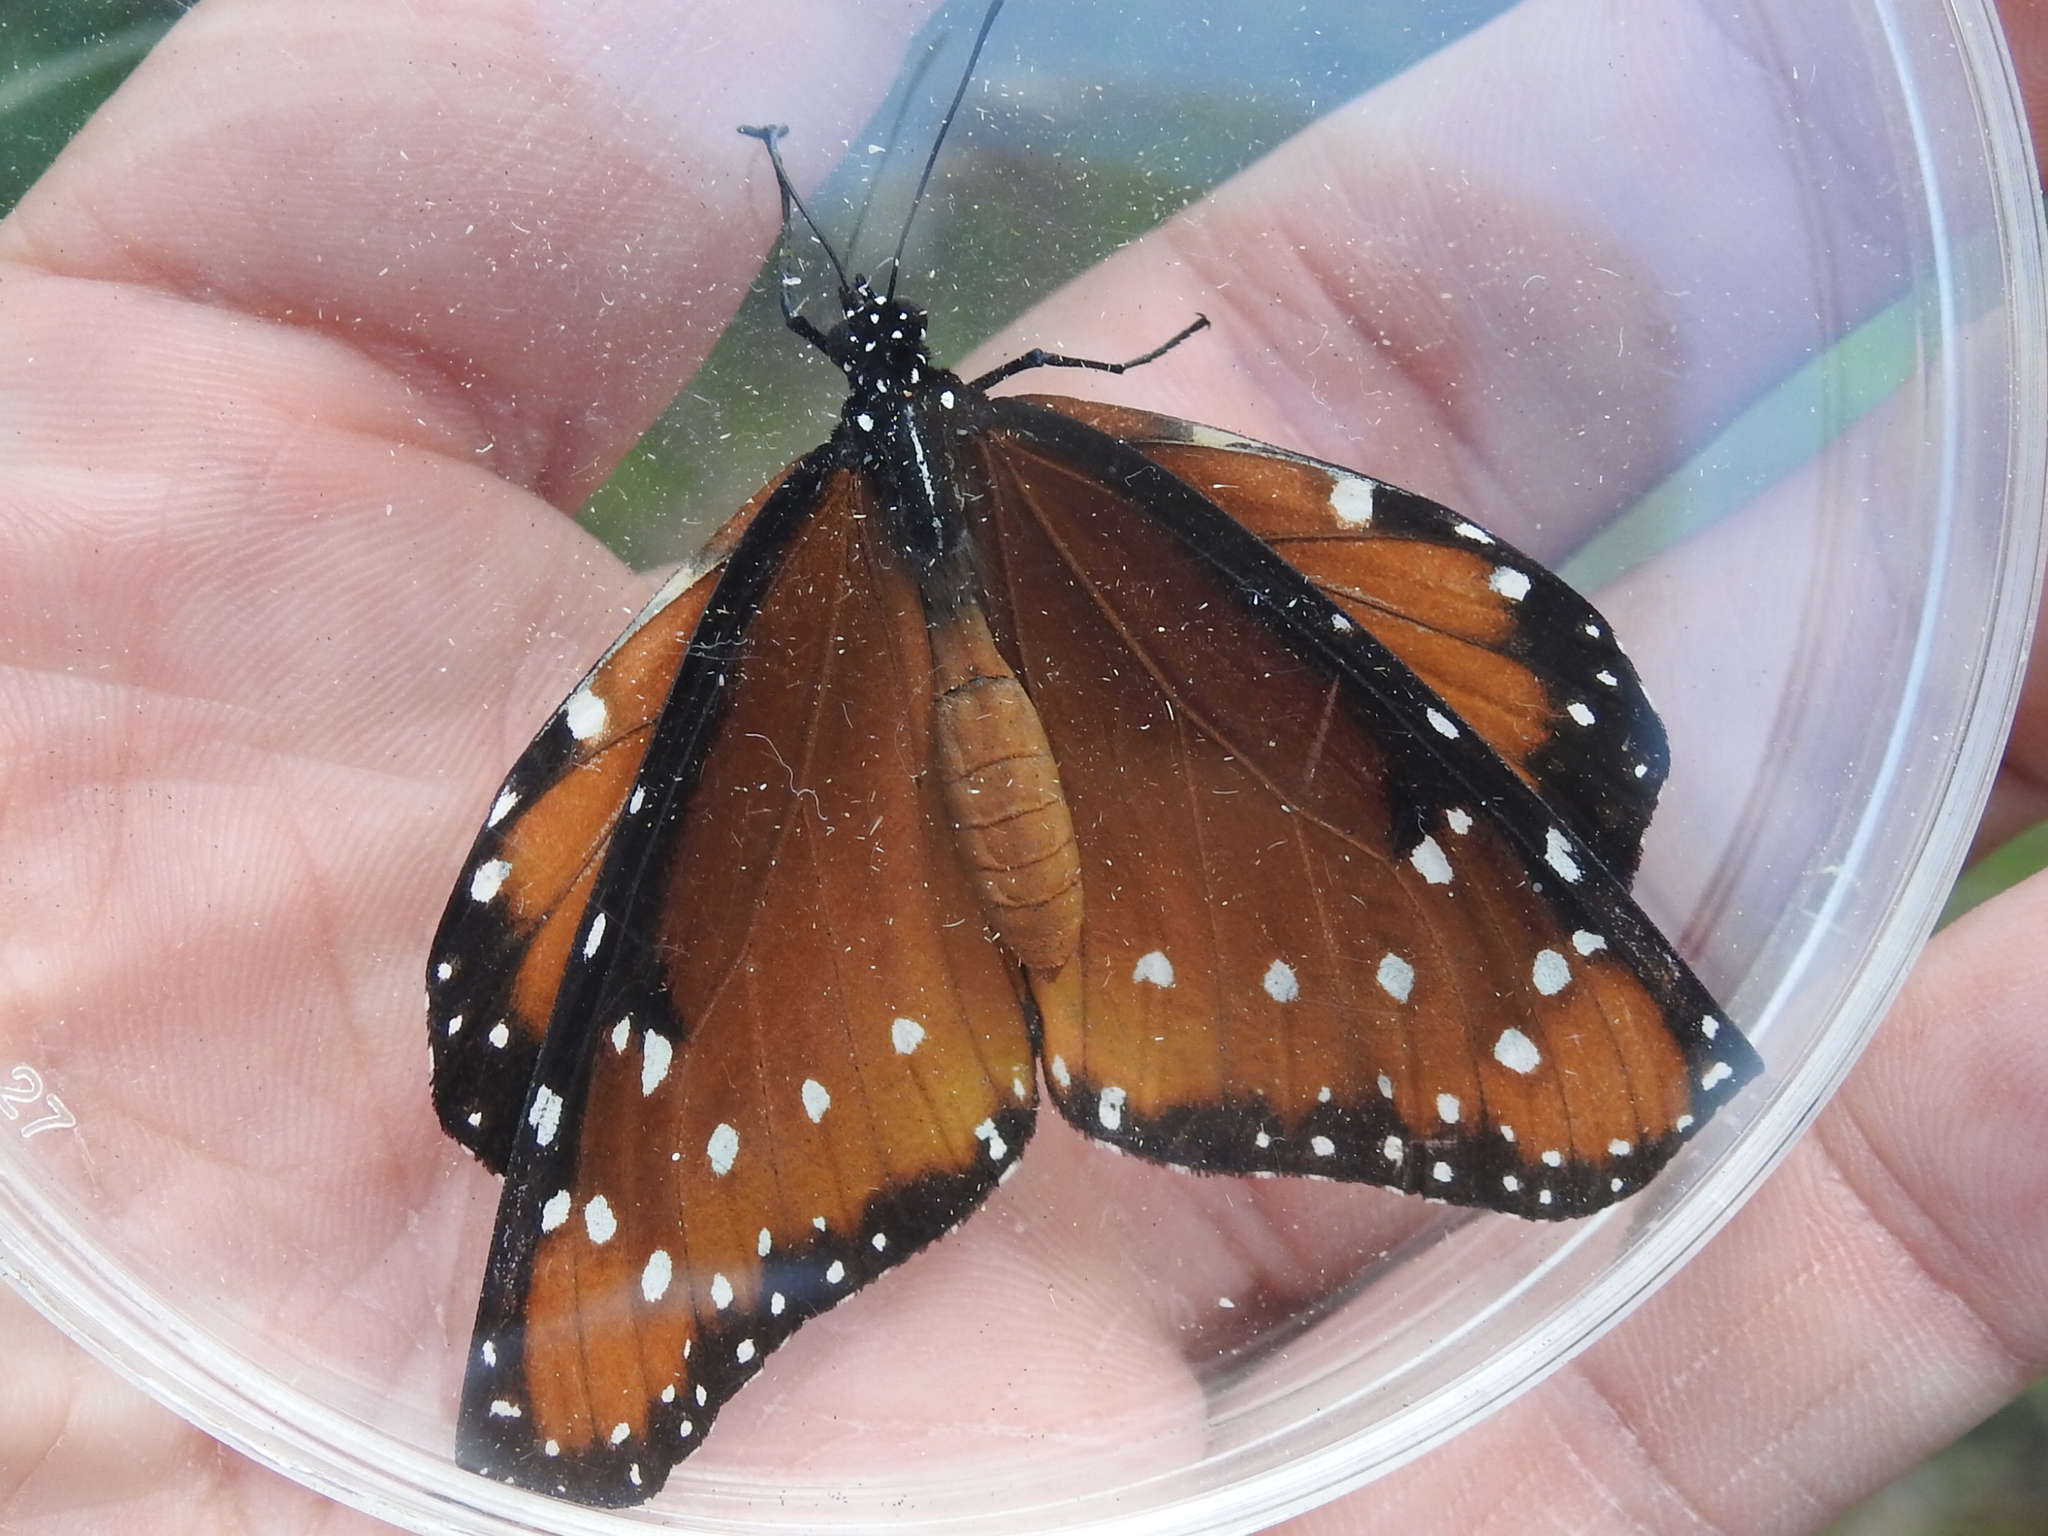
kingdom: Animalia
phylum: Arthropoda
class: Insecta
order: Lepidoptera
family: Nymphalidae
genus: Danaus
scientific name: Danaus gilippus
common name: Queen
